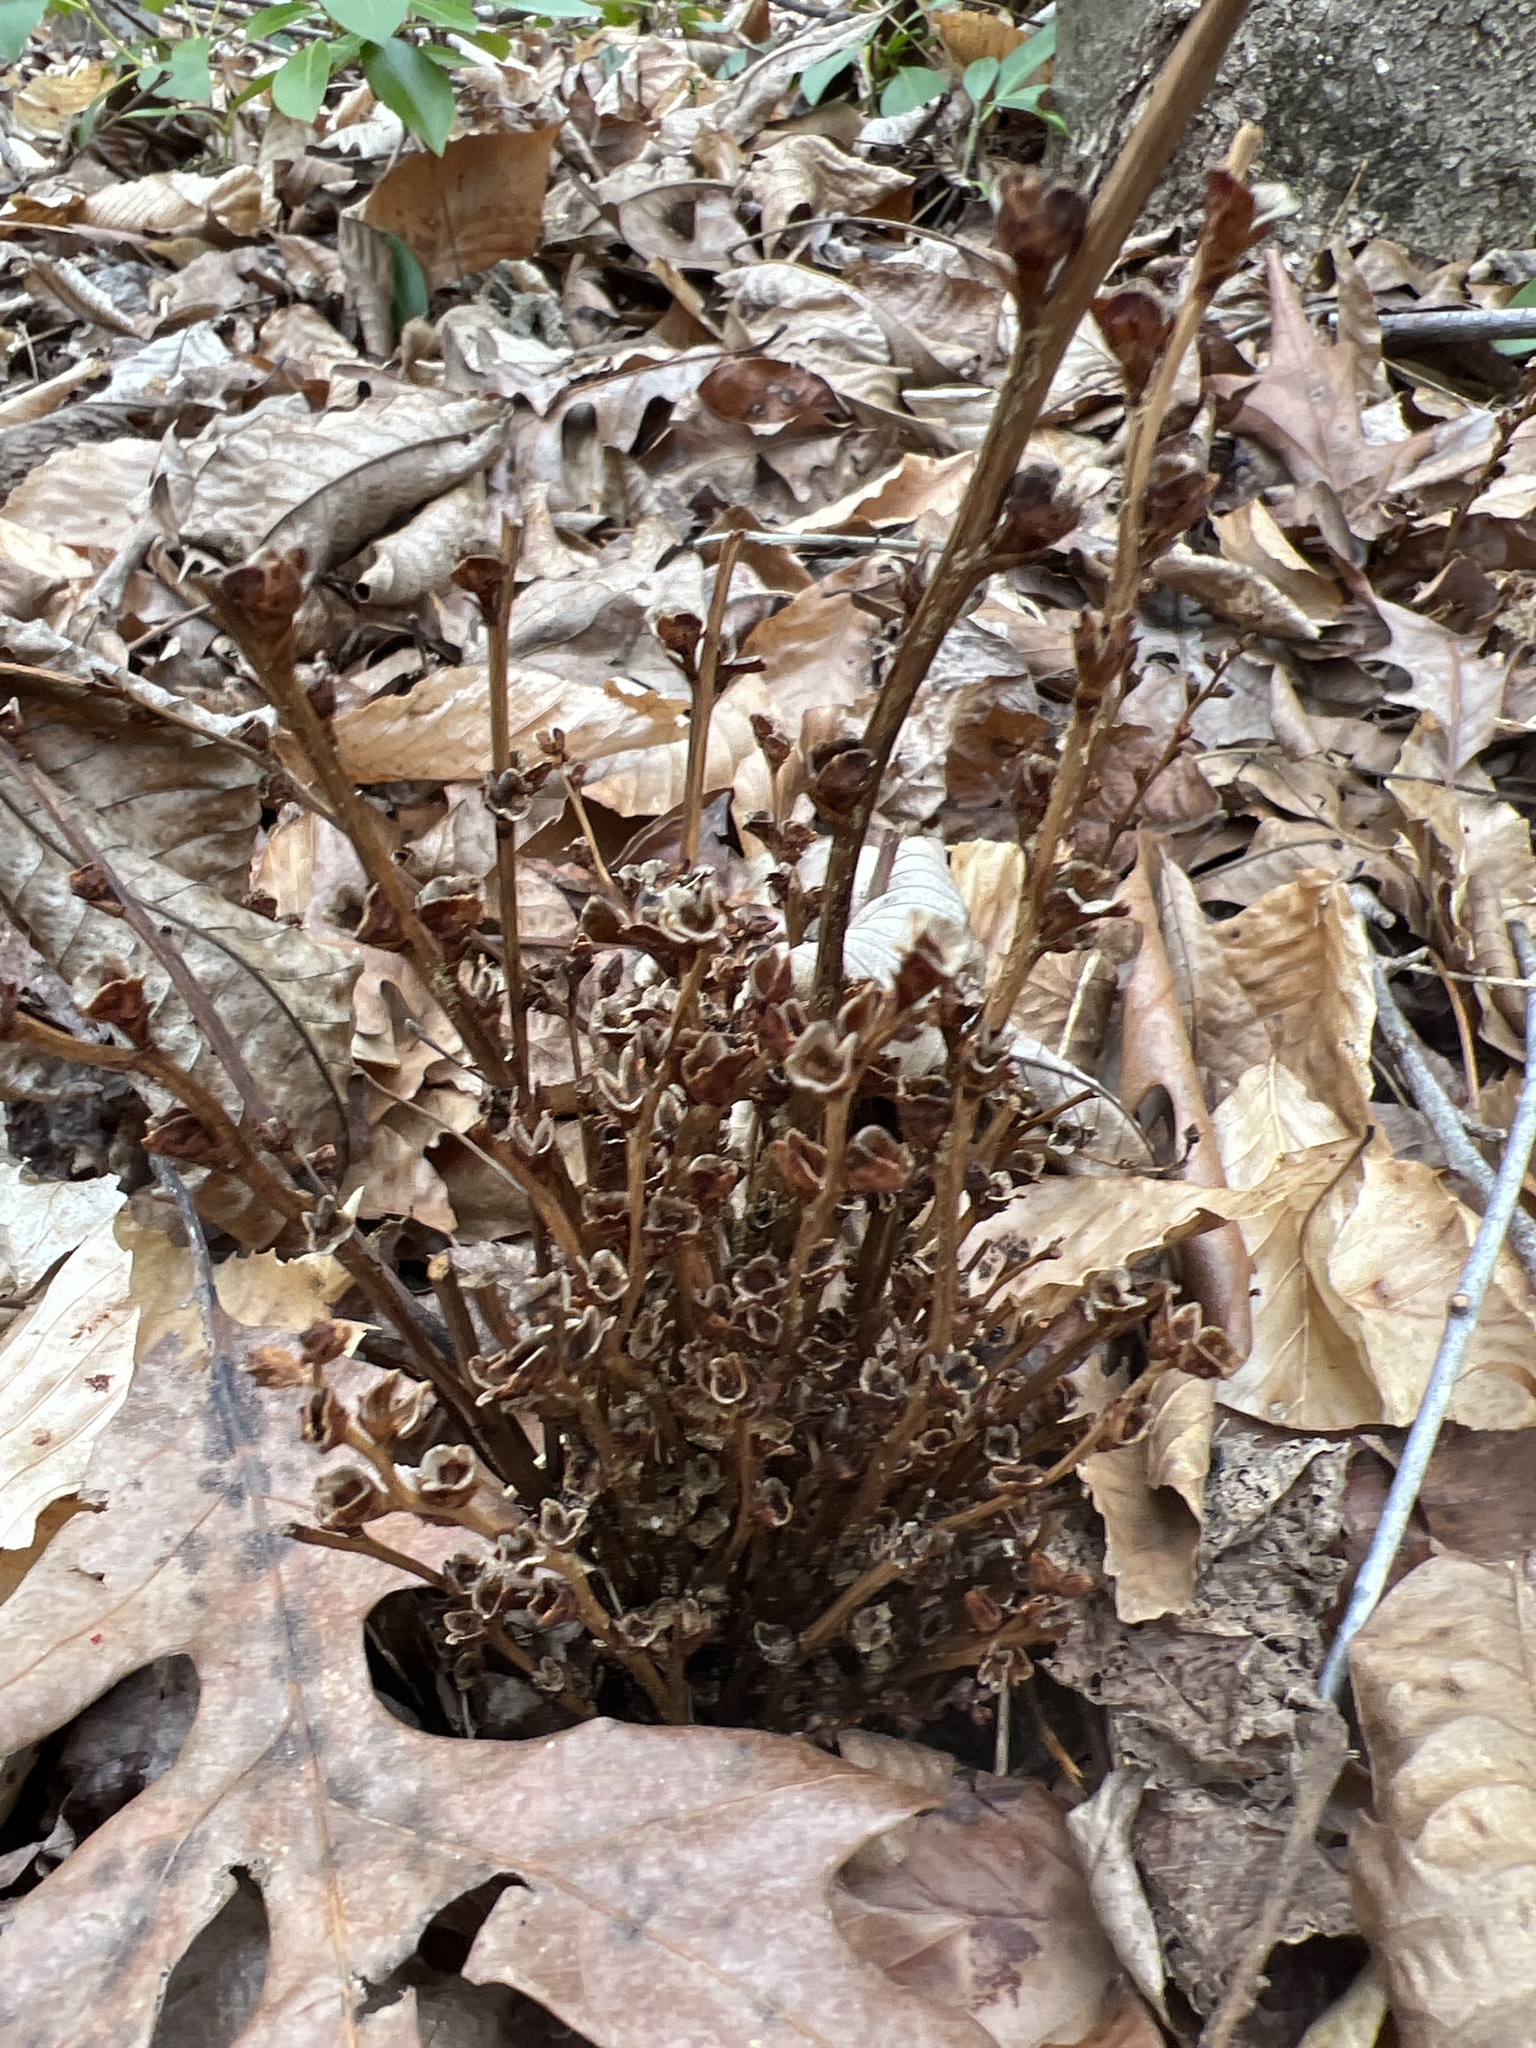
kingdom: Plantae
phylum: Tracheophyta
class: Magnoliopsida
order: Lamiales
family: Orobanchaceae
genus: Epifagus
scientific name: Epifagus virginiana
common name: Beechdrops
